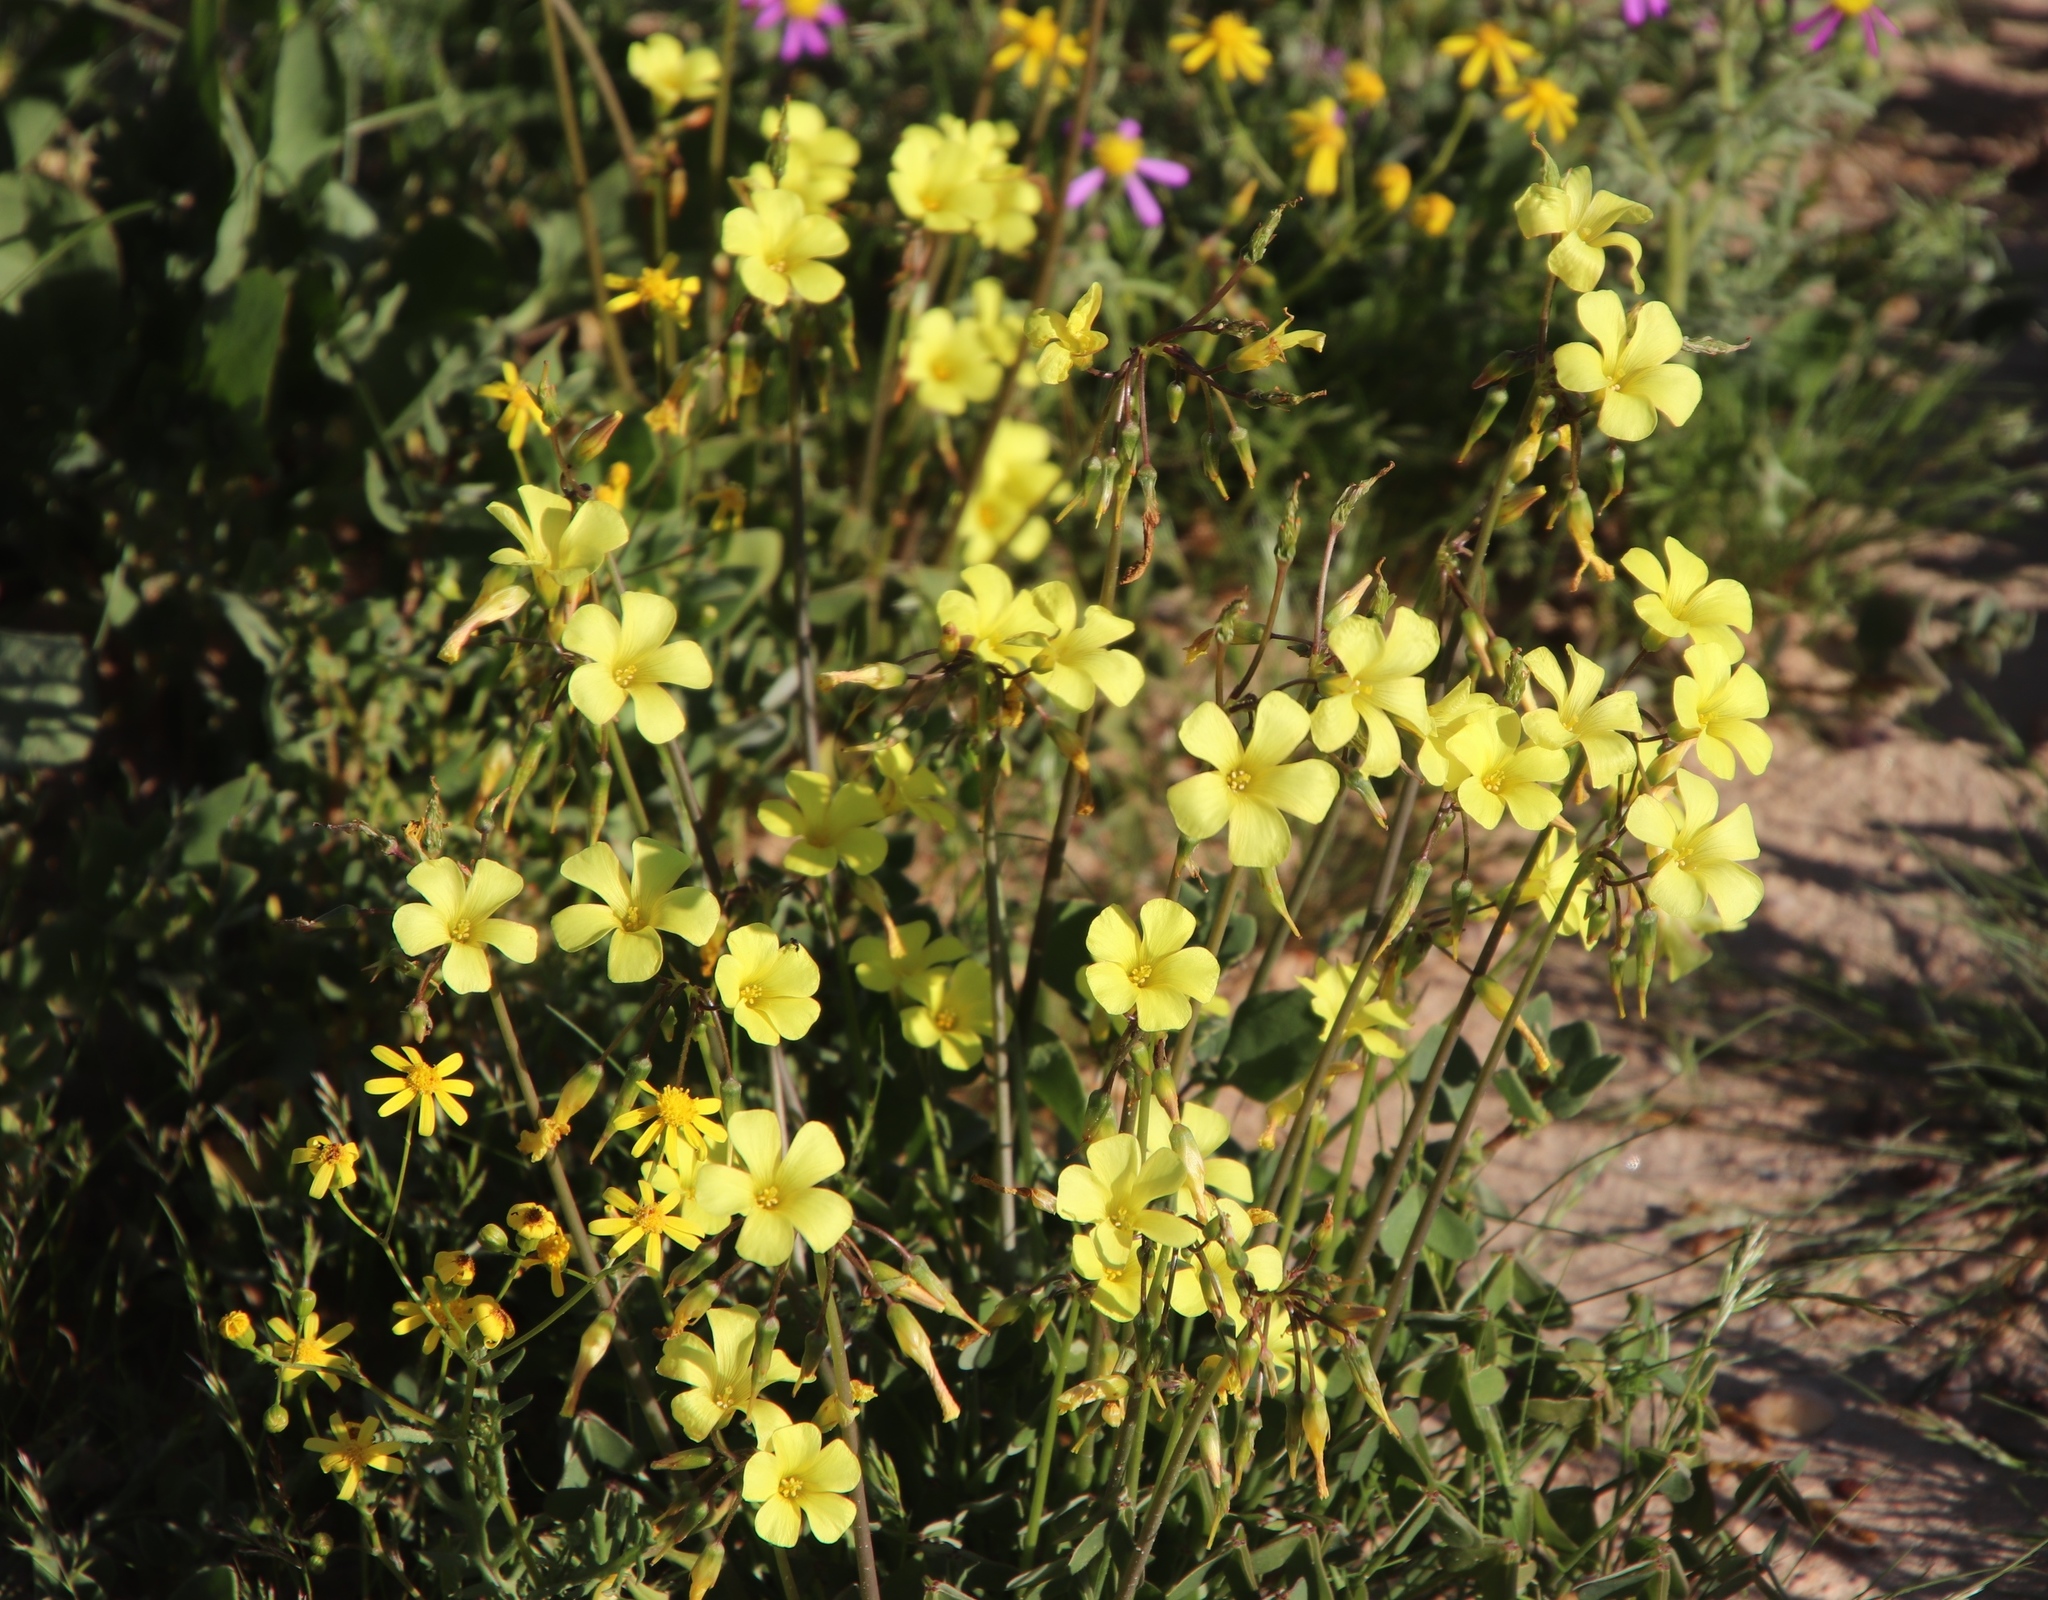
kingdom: Plantae
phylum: Tracheophyta
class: Magnoliopsida
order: Oxalidales
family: Oxalidaceae
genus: Oxalis
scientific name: Oxalis pes-caprae
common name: Bermuda-buttercup
